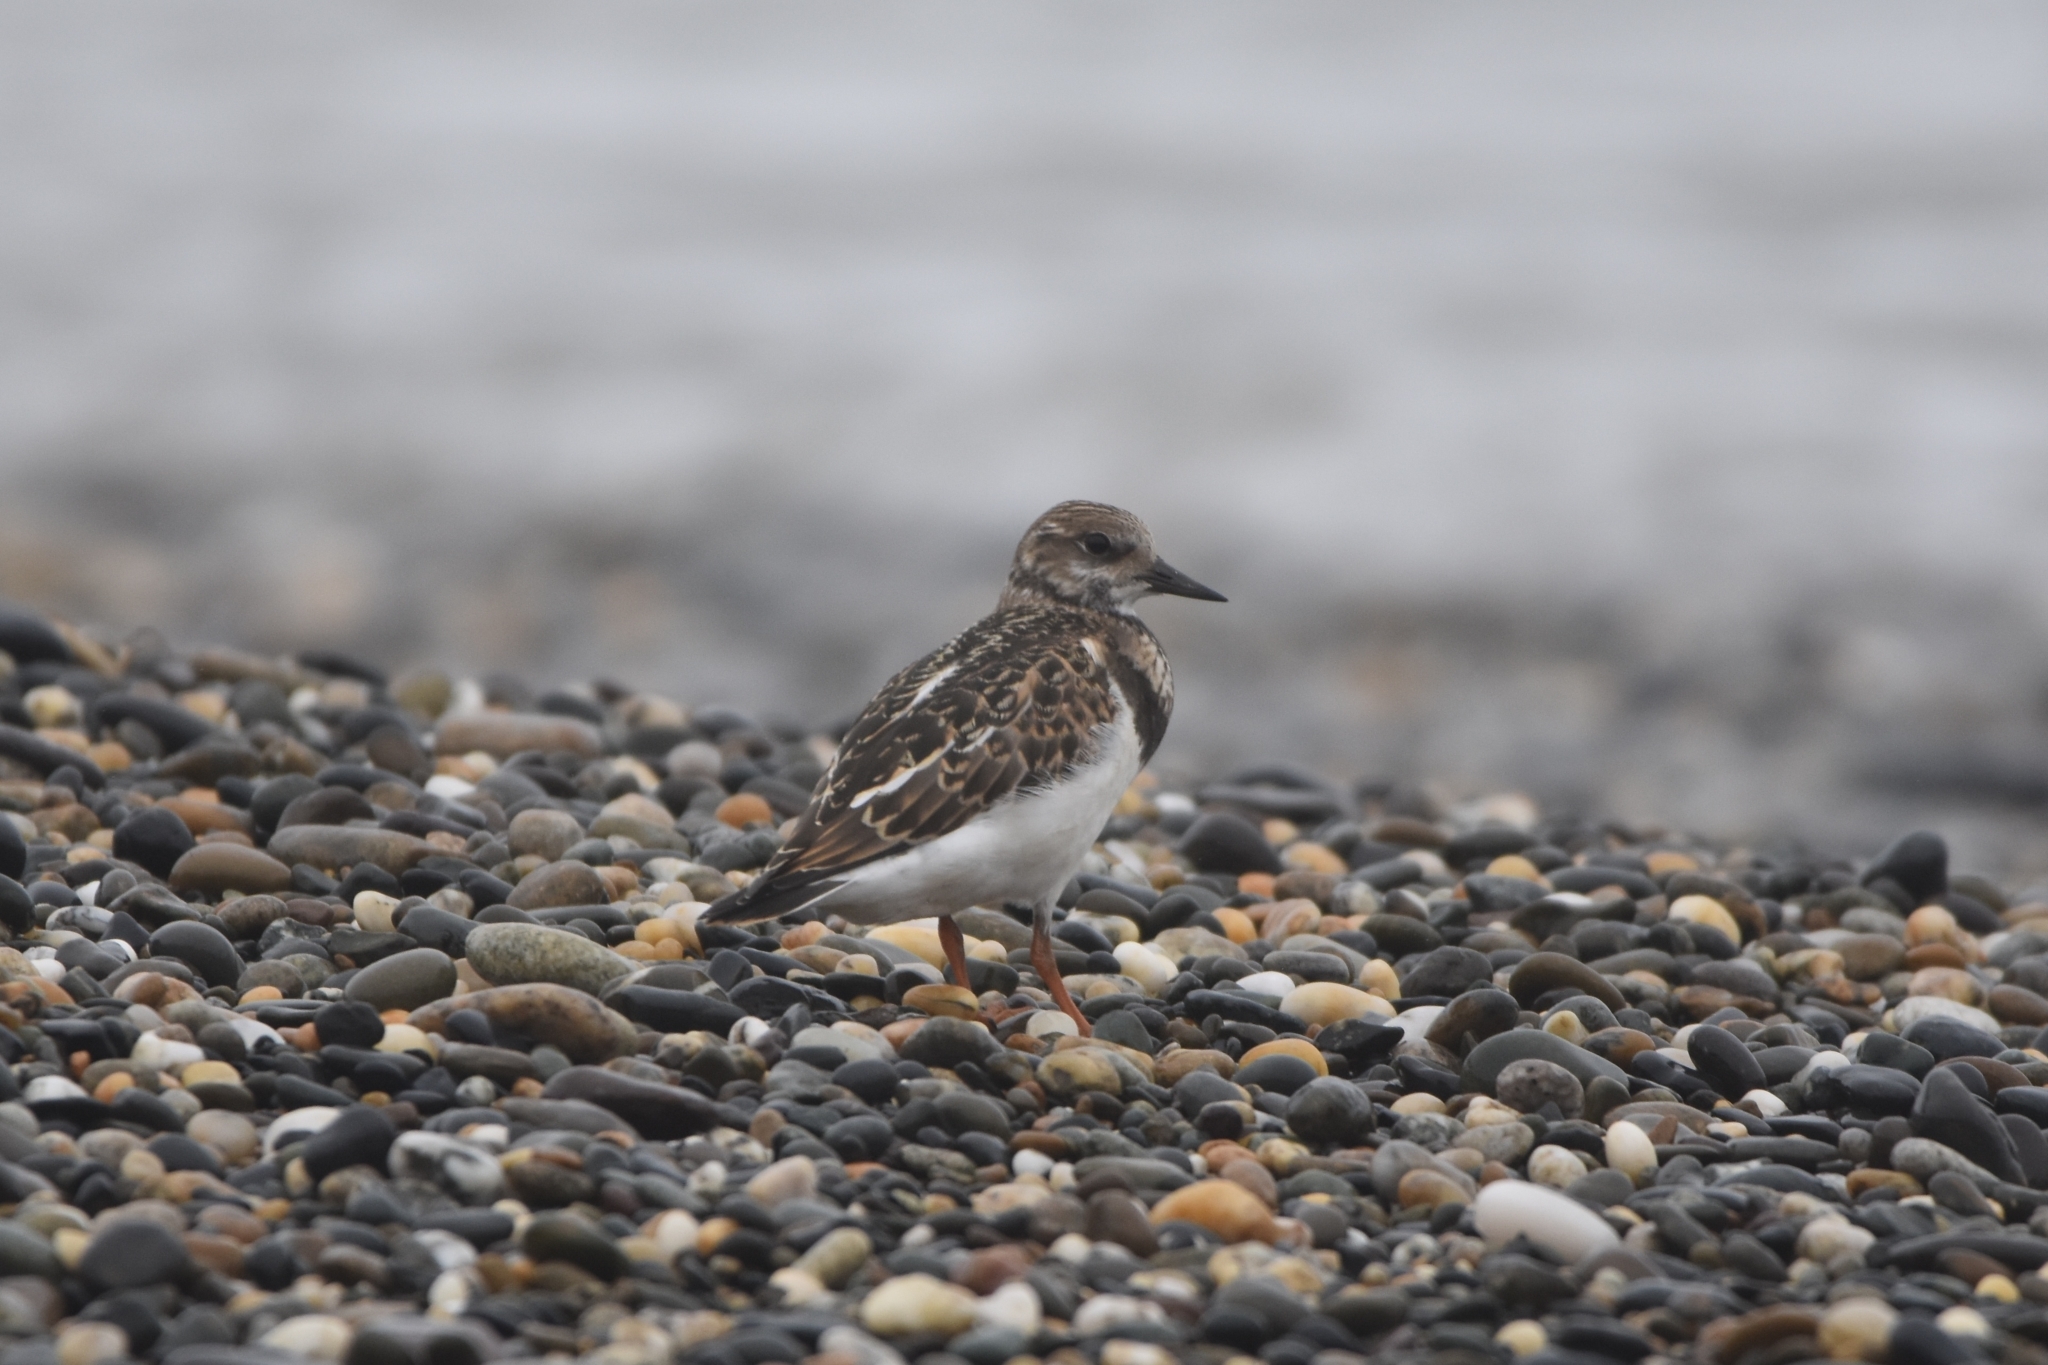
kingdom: Animalia
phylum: Chordata
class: Aves
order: Charadriiformes
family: Scolopacidae
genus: Arenaria
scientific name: Arenaria interpres
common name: Ruddy turnstone
